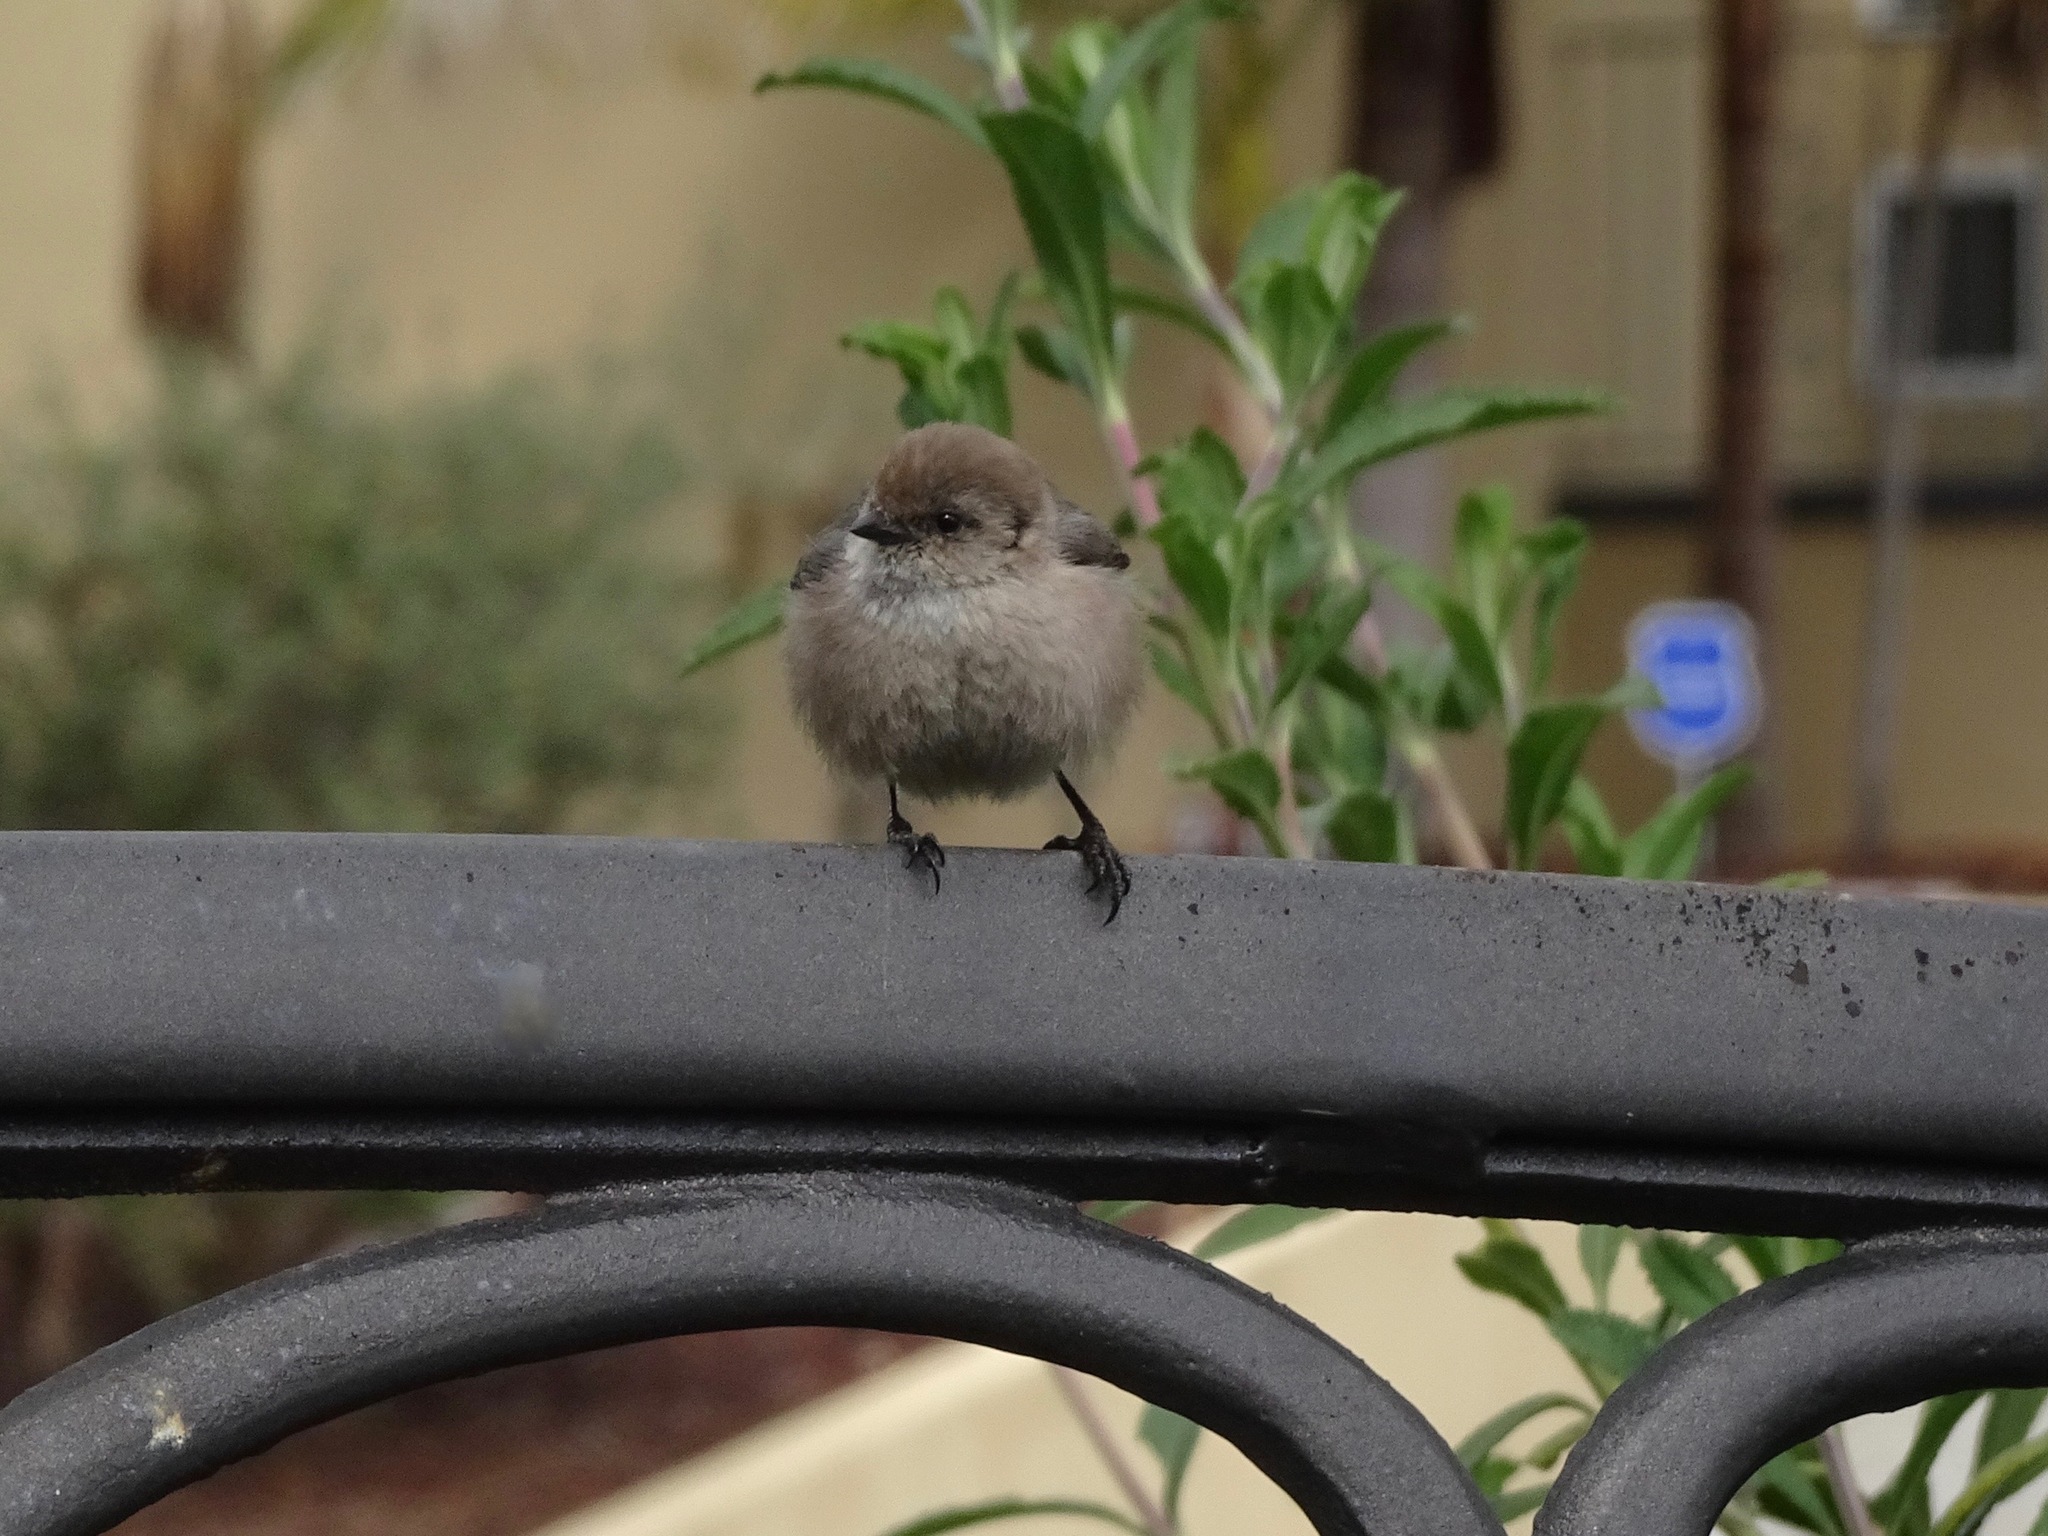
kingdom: Animalia
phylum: Chordata
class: Aves
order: Passeriformes
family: Aegithalidae
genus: Psaltriparus
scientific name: Psaltriparus minimus
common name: American bushtit
